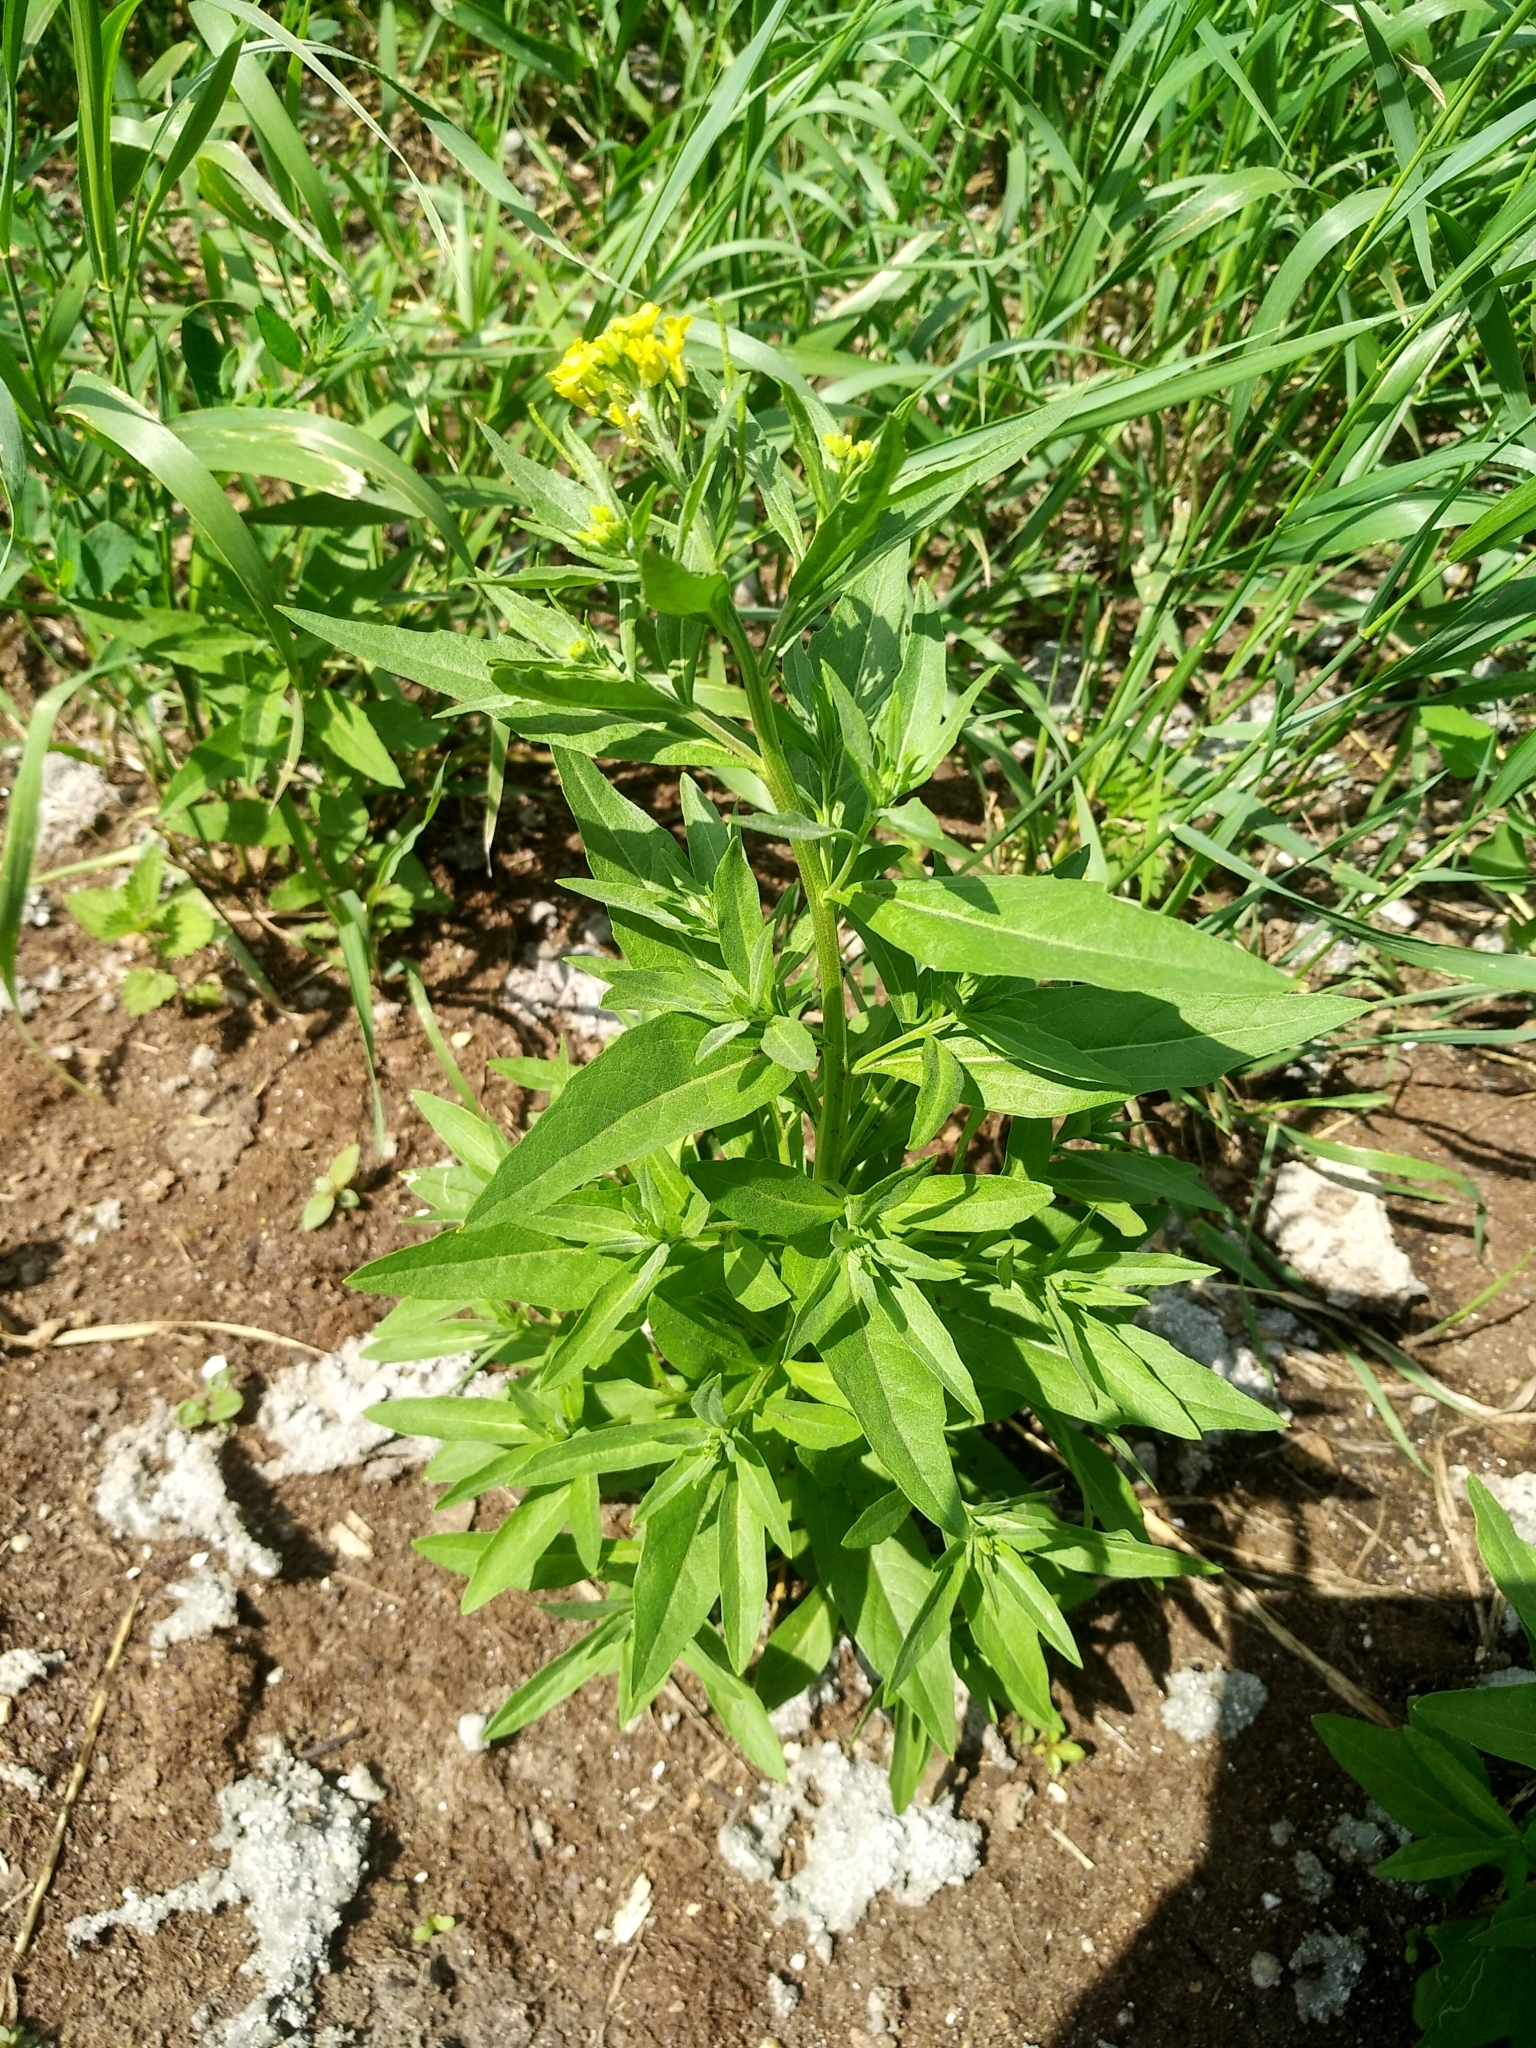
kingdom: Plantae
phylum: Tracheophyta
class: Magnoliopsida
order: Brassicales
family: Brassicaceae
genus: Erysimum
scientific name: Erysimum cheiranthoides
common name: Treacle mustard
